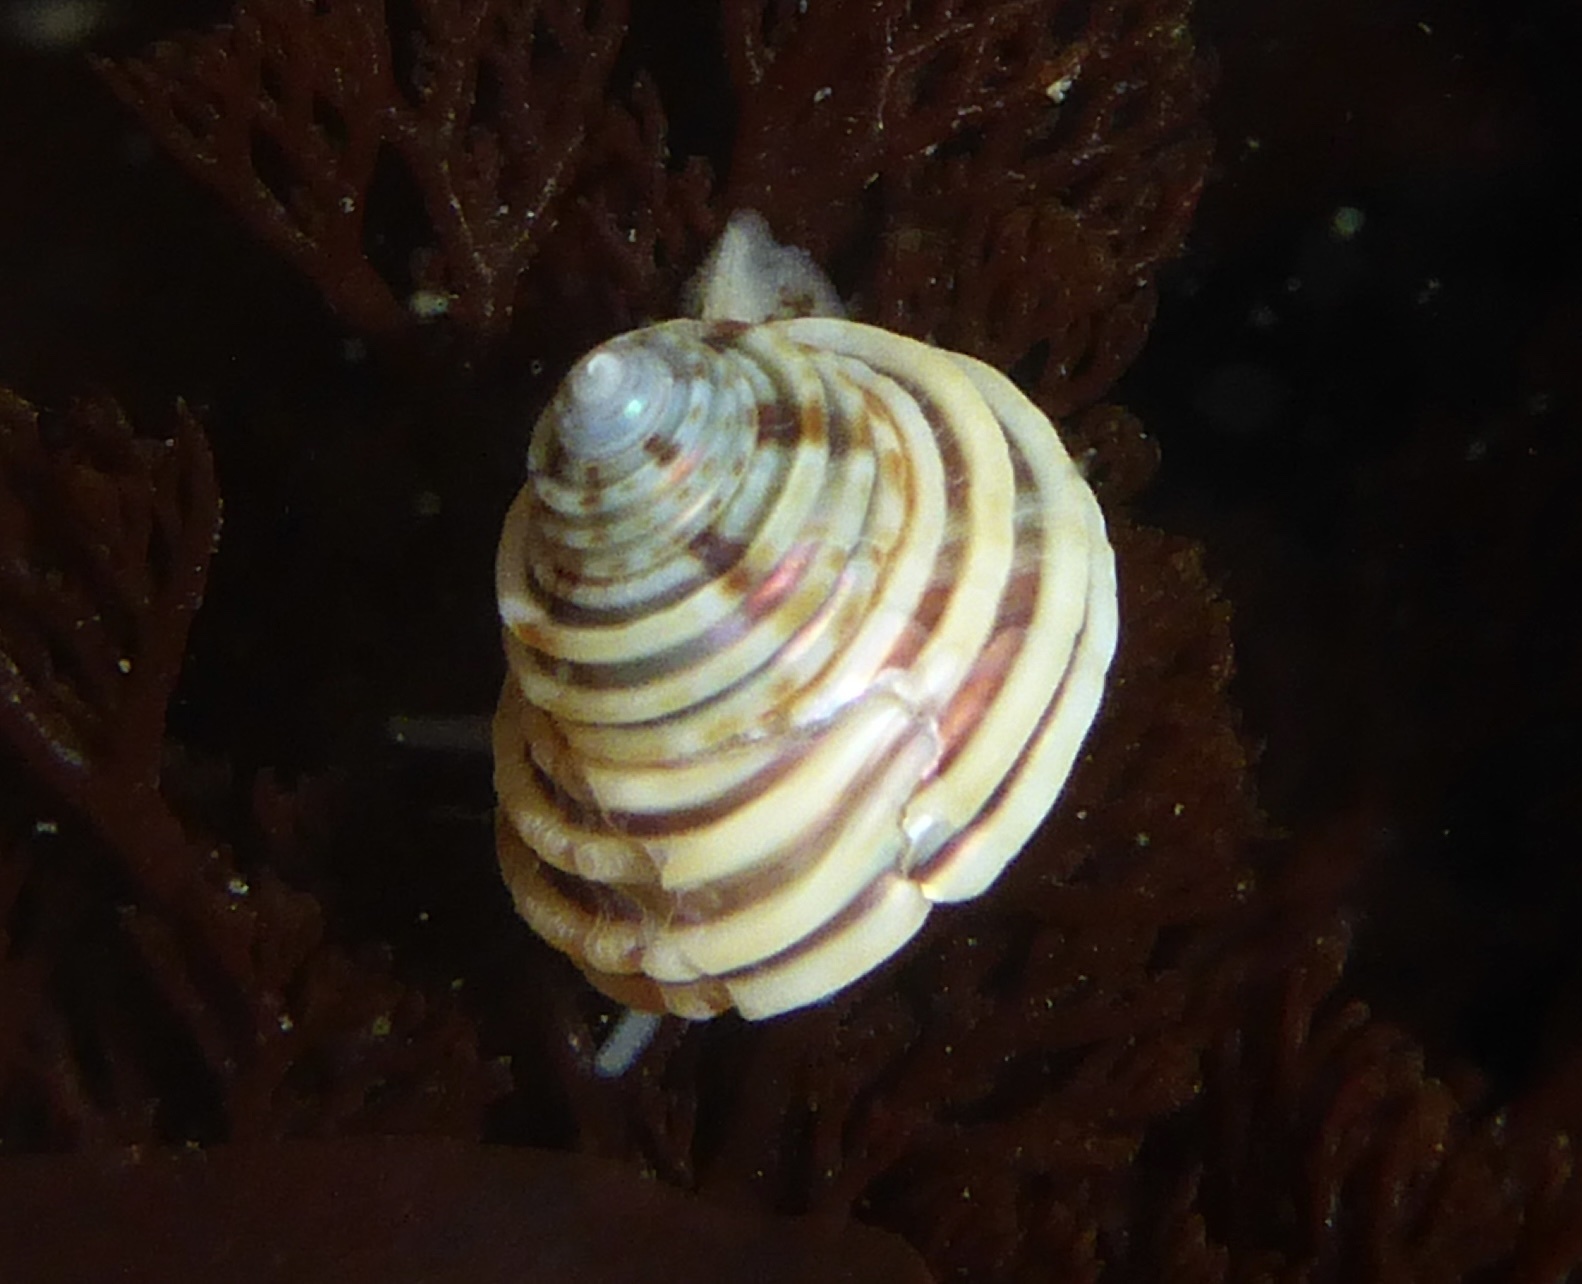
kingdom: Animalia
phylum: Mollusca
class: Gastropoda
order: Trochida
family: Calliostomatidae
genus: Calliostoma
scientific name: Calliostoma canaliculatum
